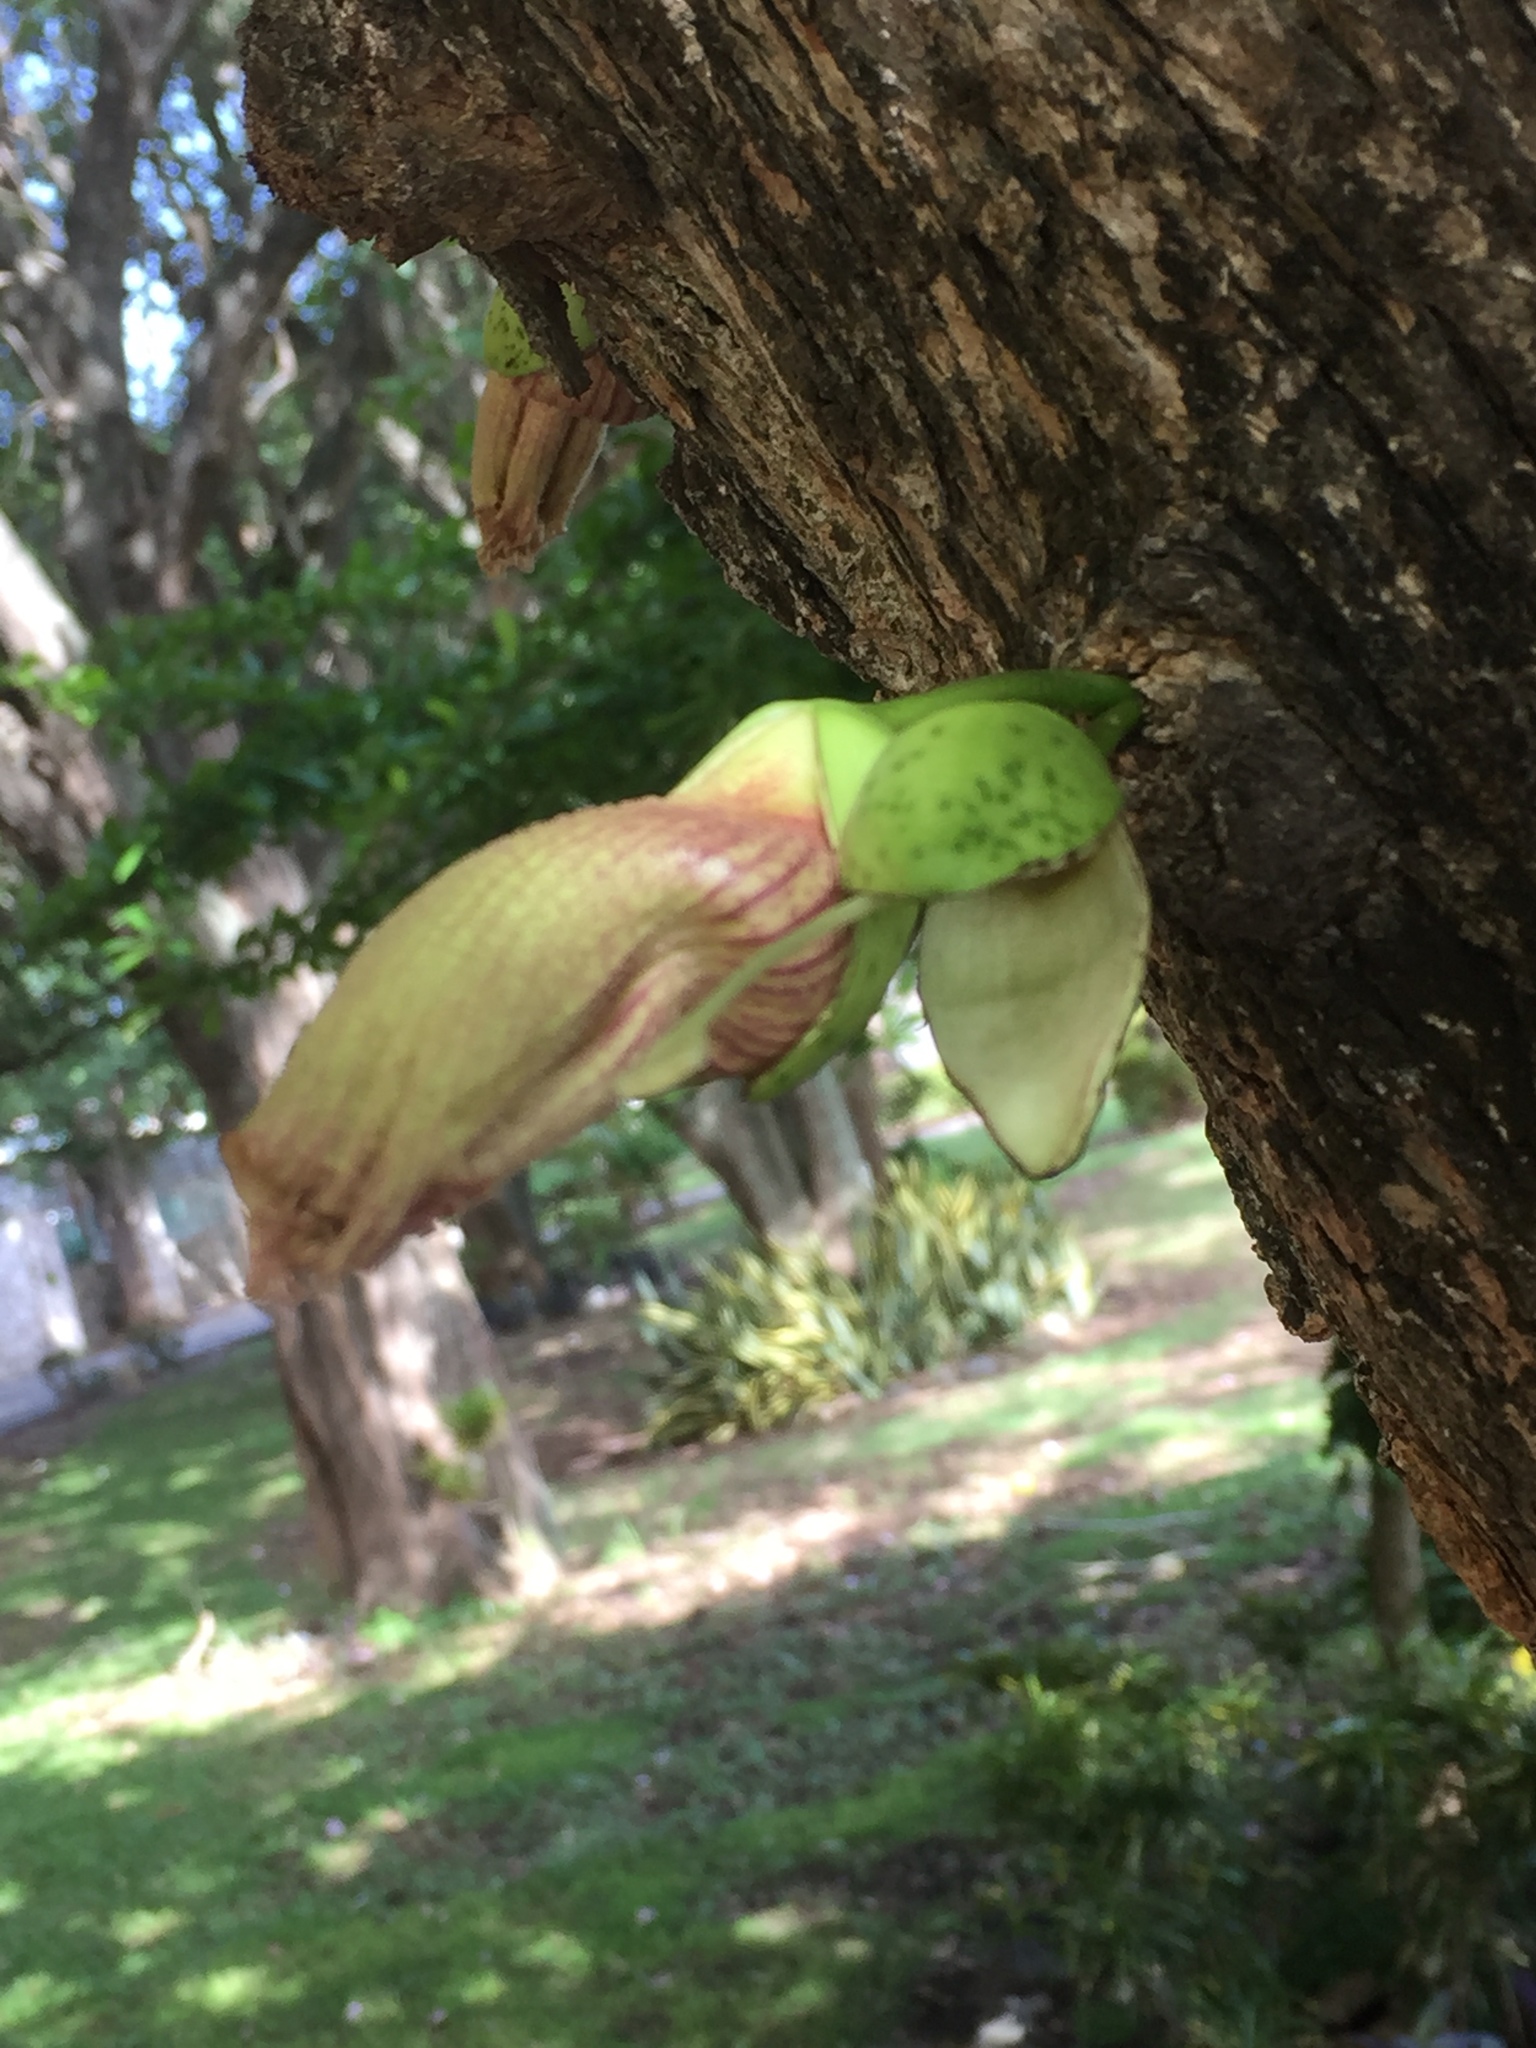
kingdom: Plantae
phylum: Tracheophyta
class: Magnoliopsida
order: Lamiales
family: Bignoniaceae
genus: Crescentia
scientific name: Crescentia cujete
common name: Calabash
